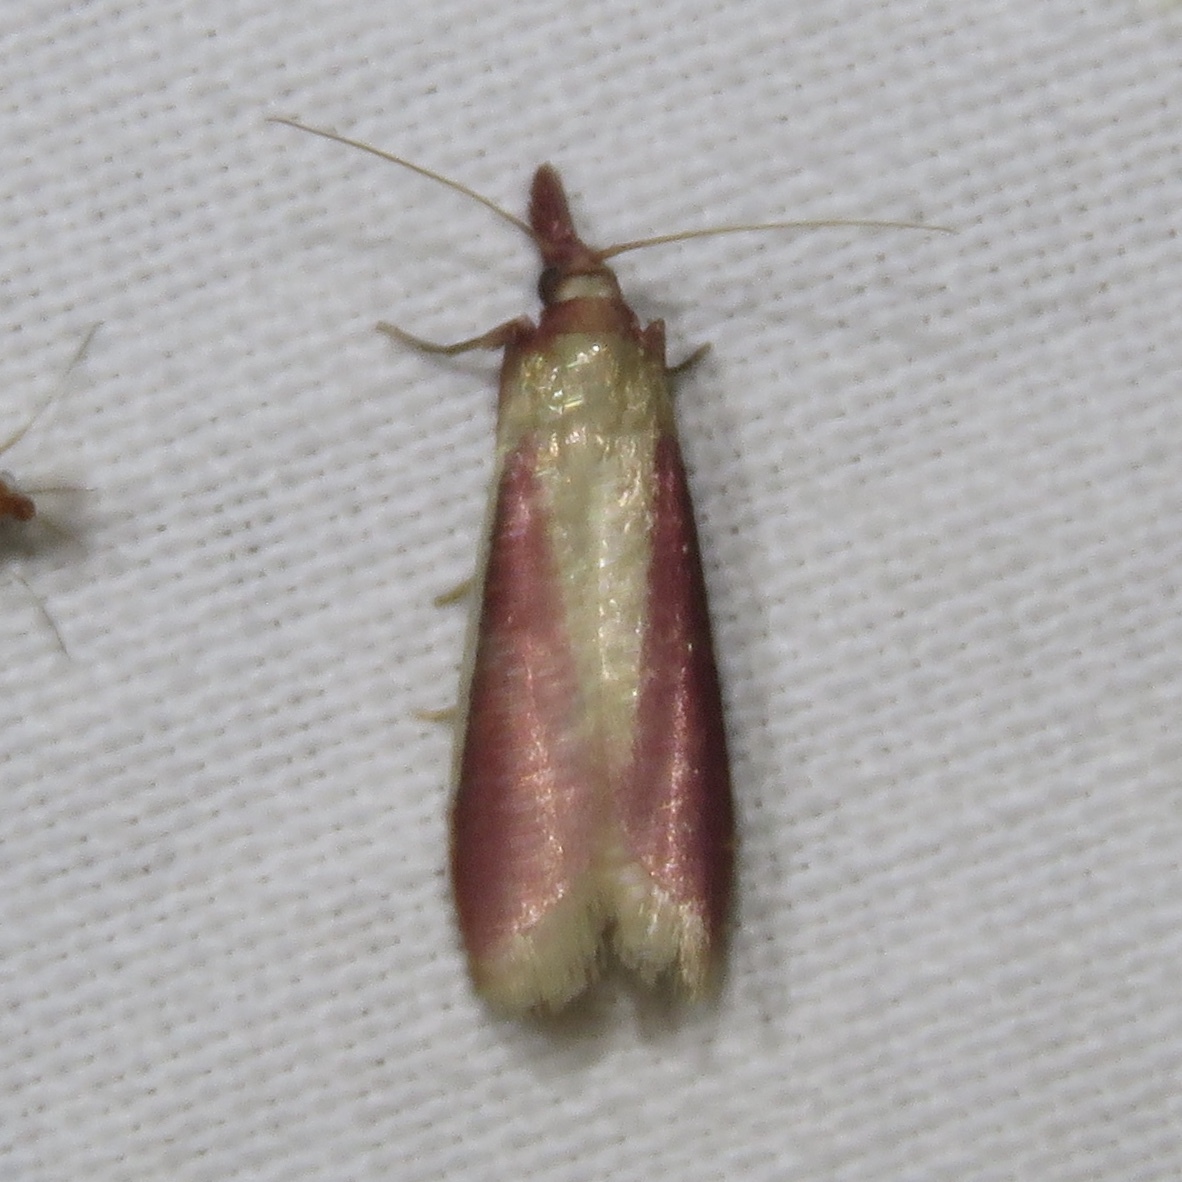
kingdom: Animalia
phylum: Arthropoda
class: Insecta
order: Lepidoptera
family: Pyralidae
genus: Peoria
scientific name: Peoria approximella
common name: Carmine snout
